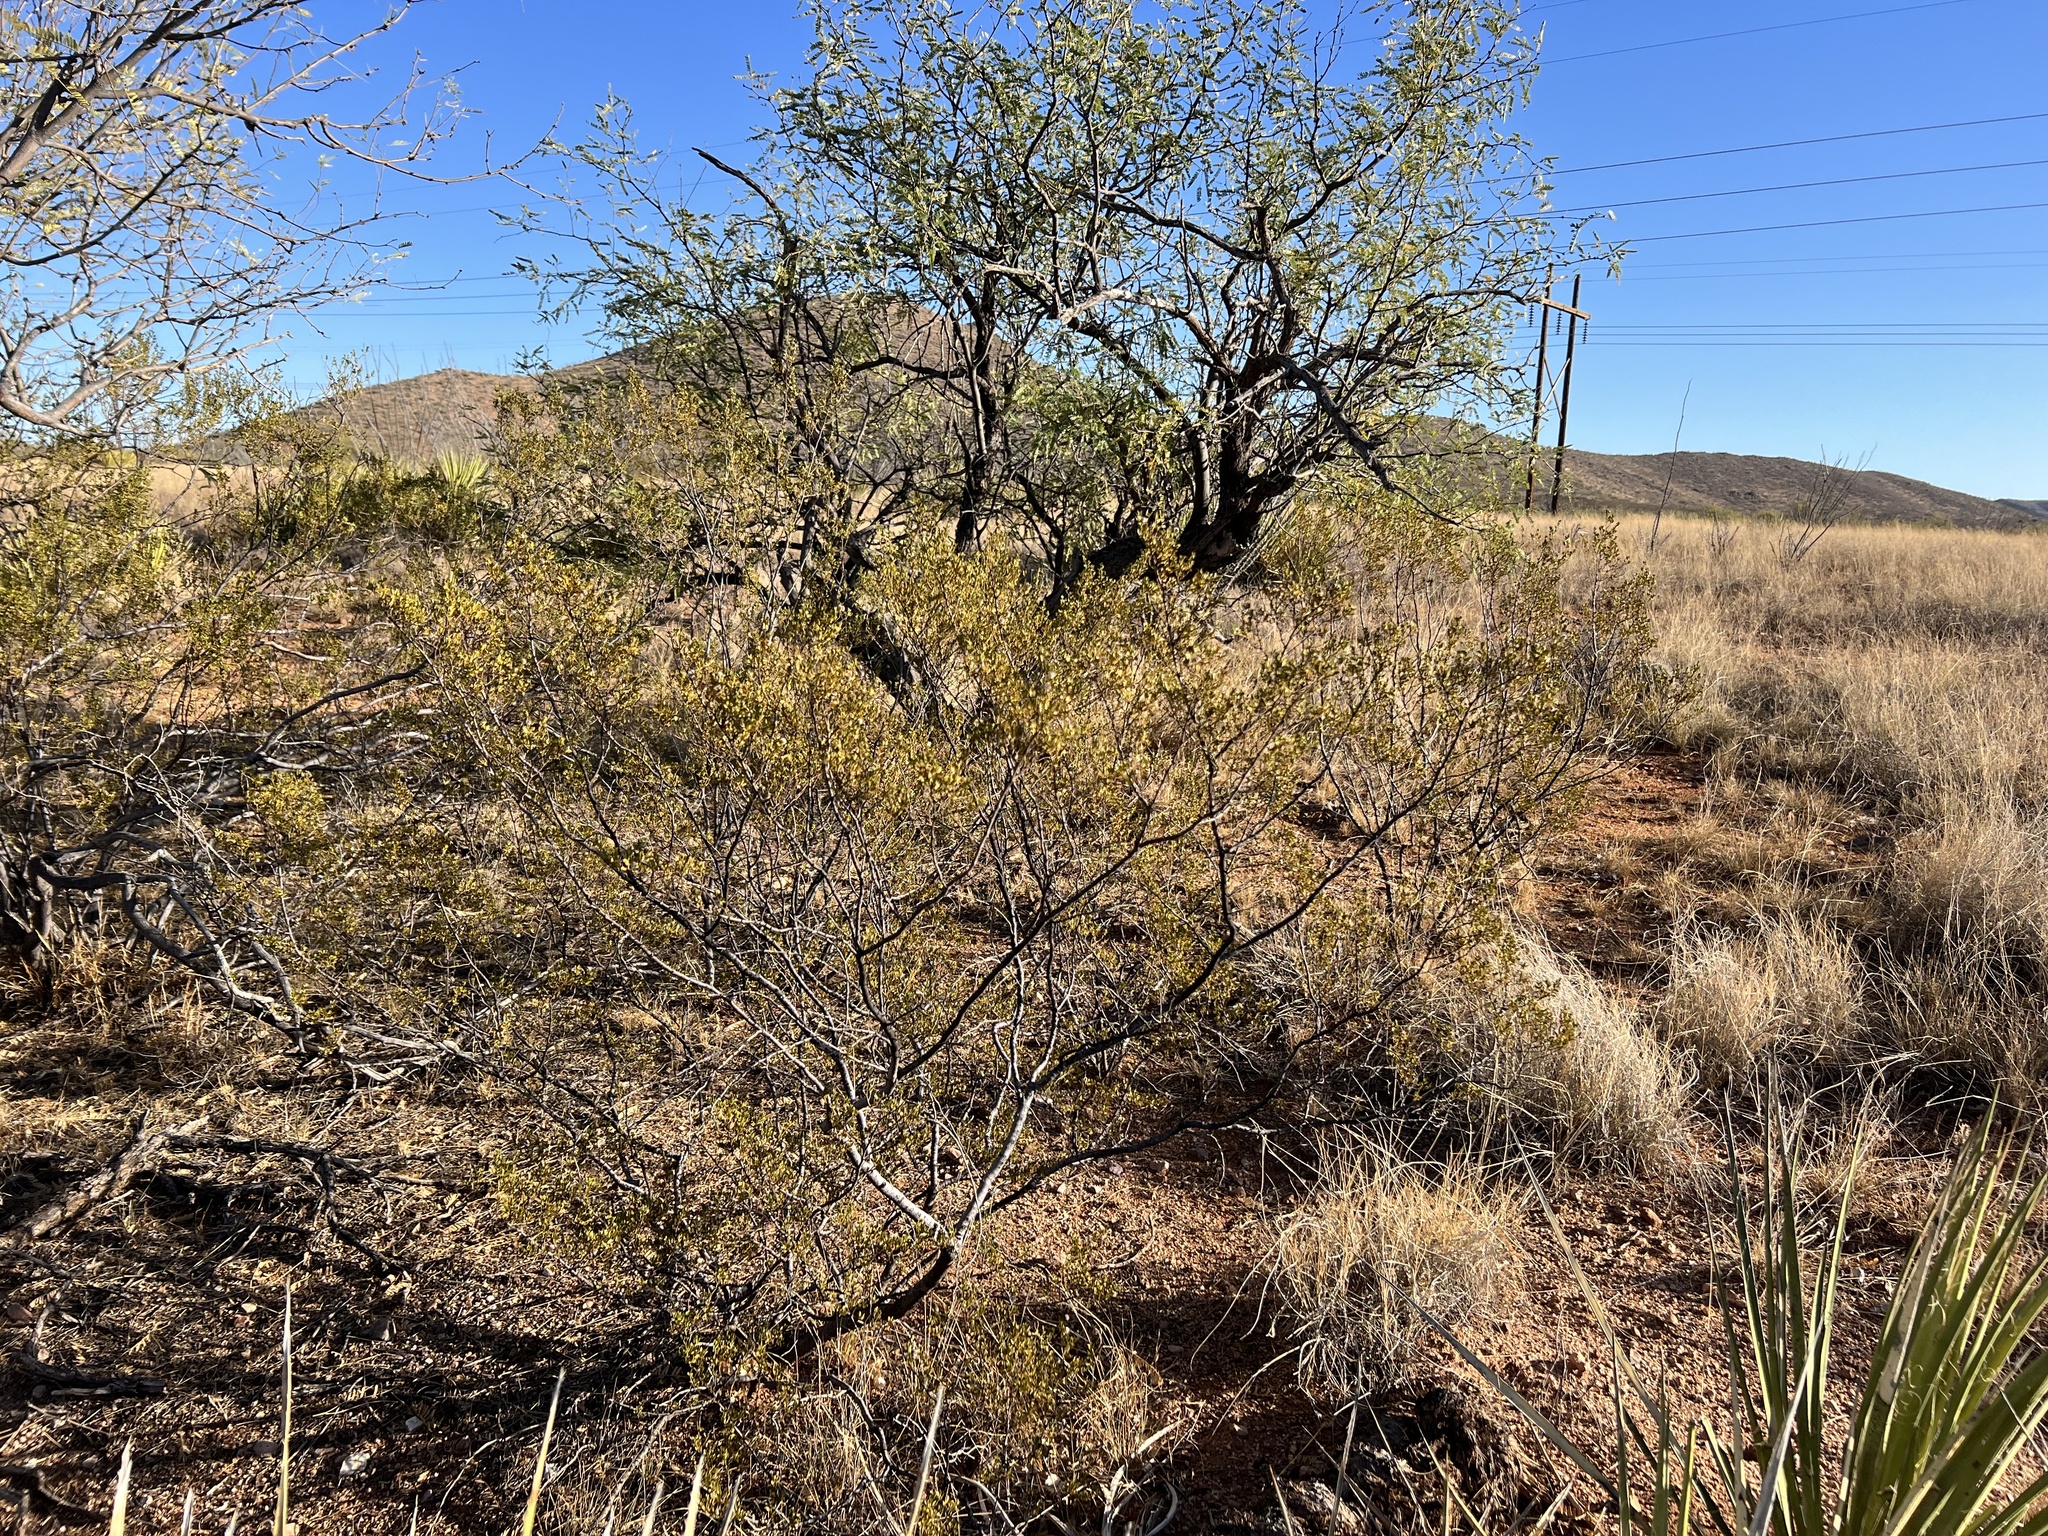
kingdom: Plantae
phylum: Tracheophyta
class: Magnoliopsida
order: Zygophyllales
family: Zygophyllaceae
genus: Larrea
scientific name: Larrea tridentata
